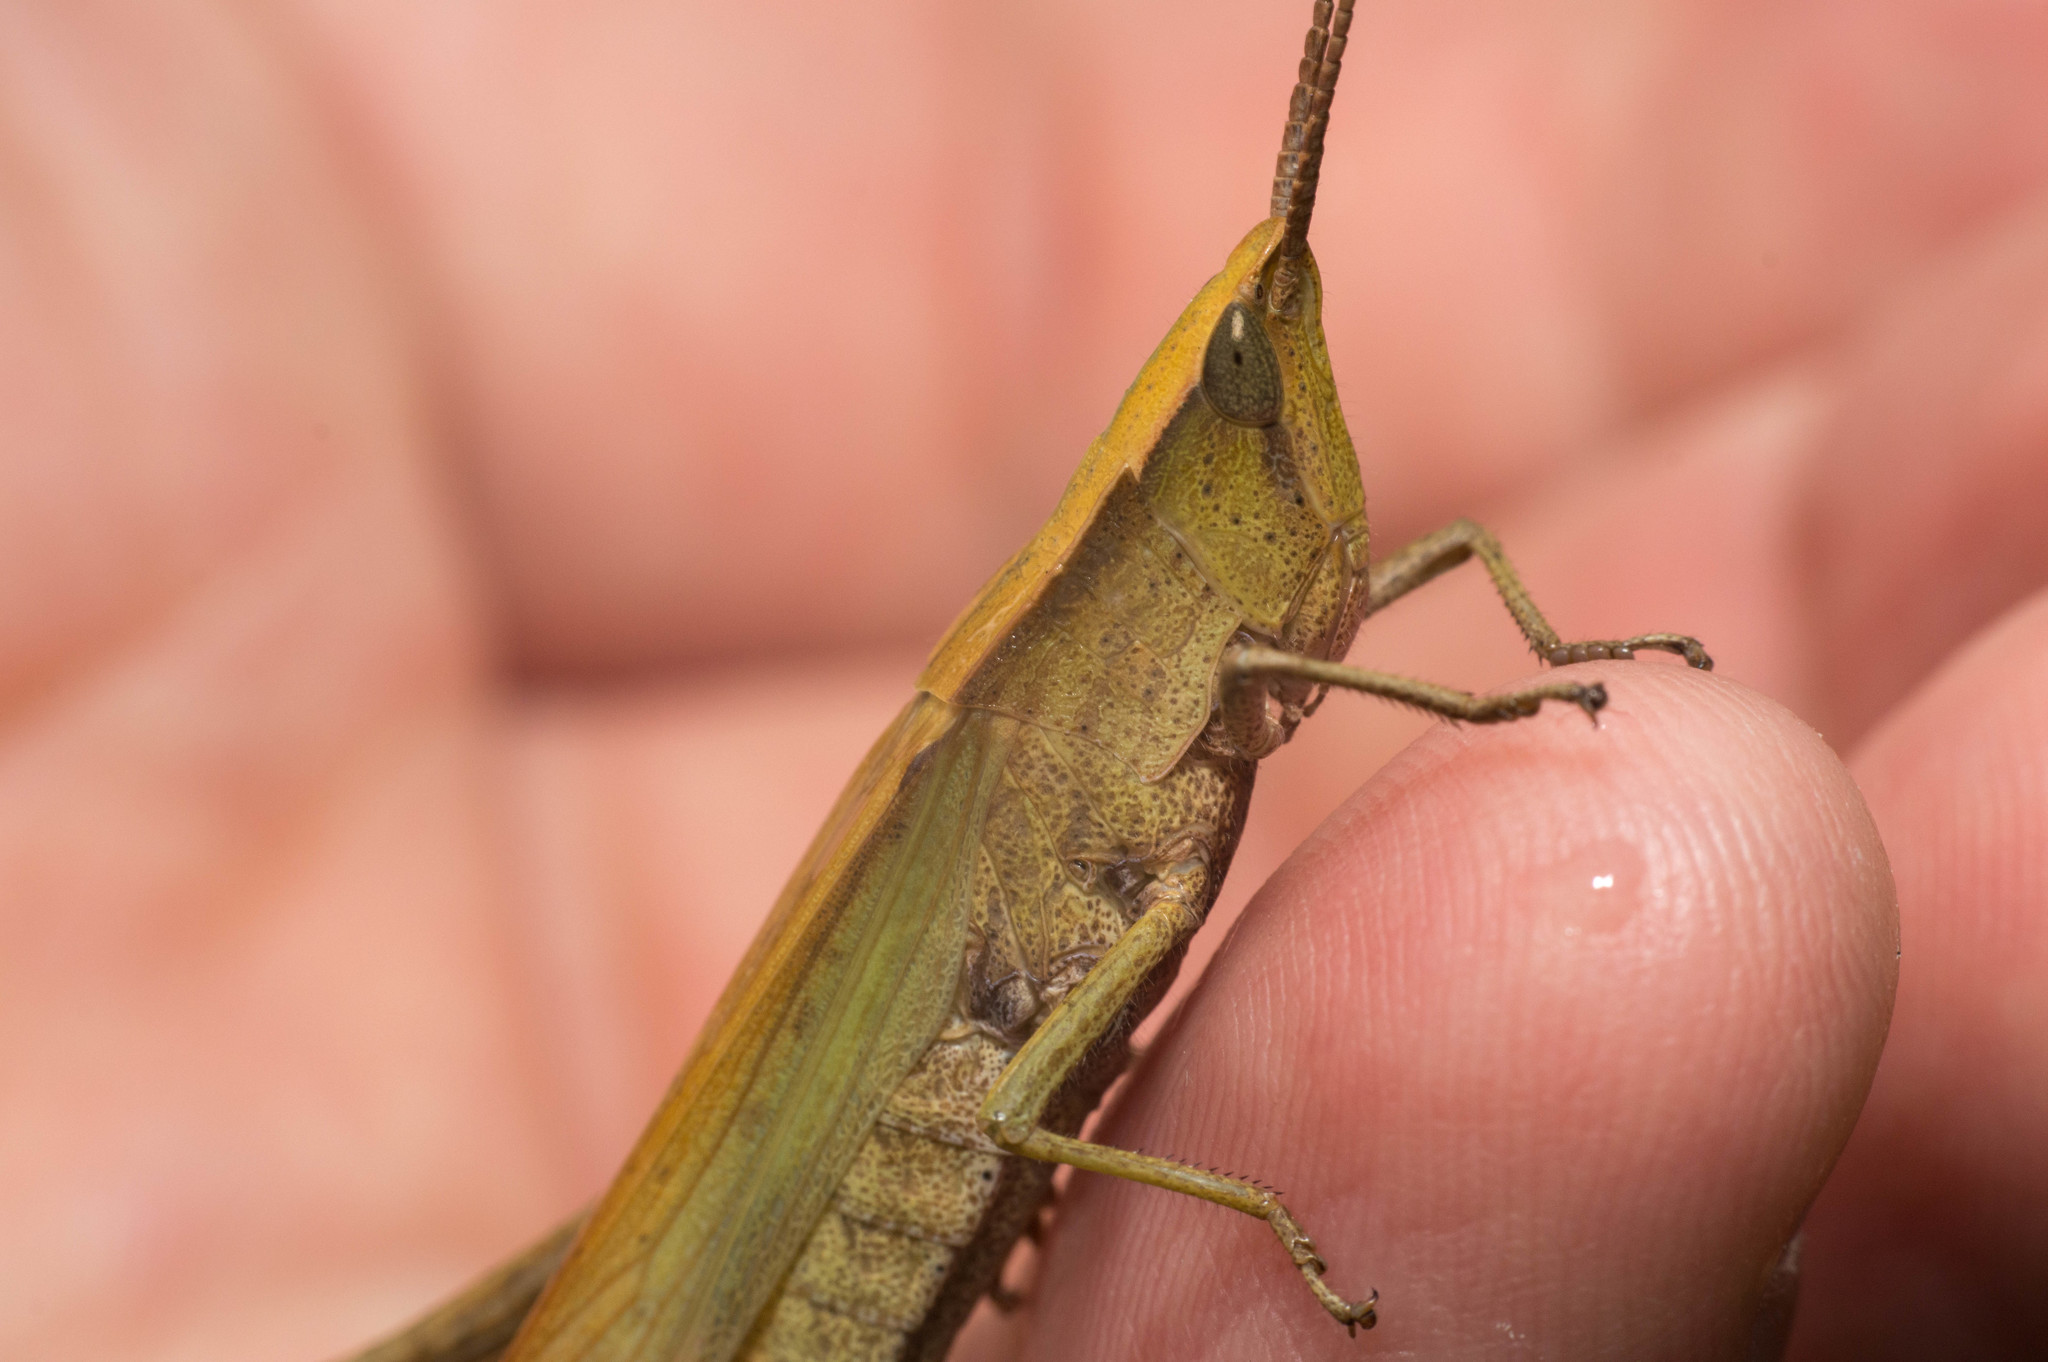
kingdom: Animalia
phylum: Arthropoda
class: Insecta
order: Orthoptera
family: Acrididae
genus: Metaleptea
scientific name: Metaleptea adspersa
